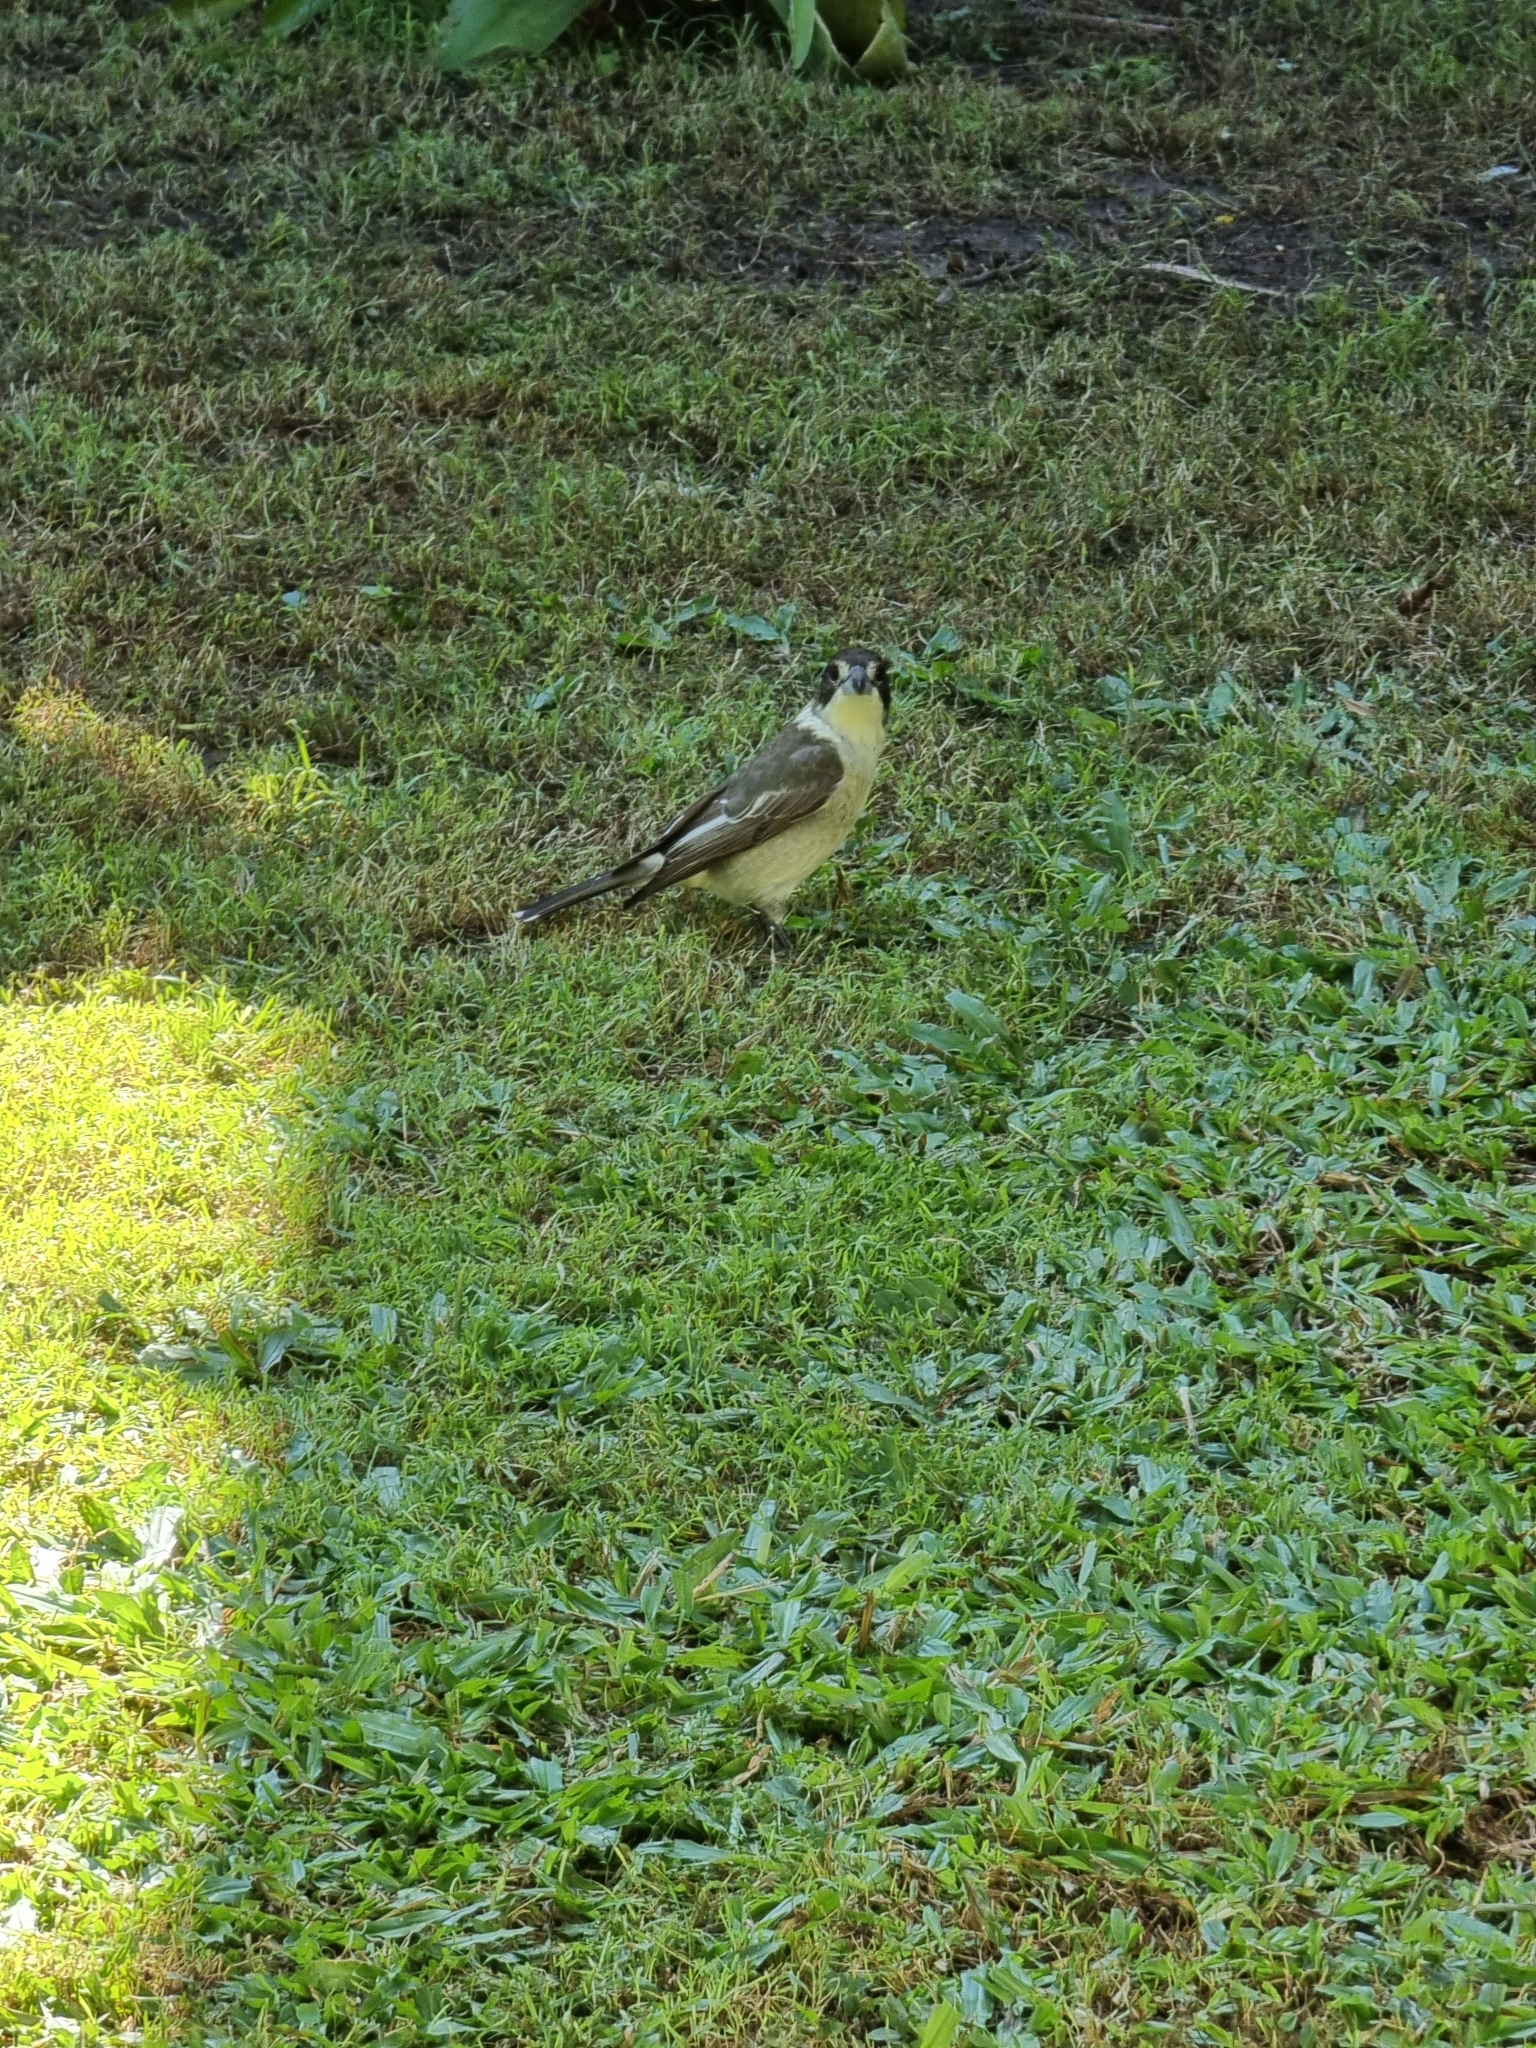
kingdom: Animalia
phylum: Chordata
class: Aves
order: Passeriformes
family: Cracticidae
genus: Cracticus
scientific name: Cracticus torquatus
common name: Grey butcherbird
